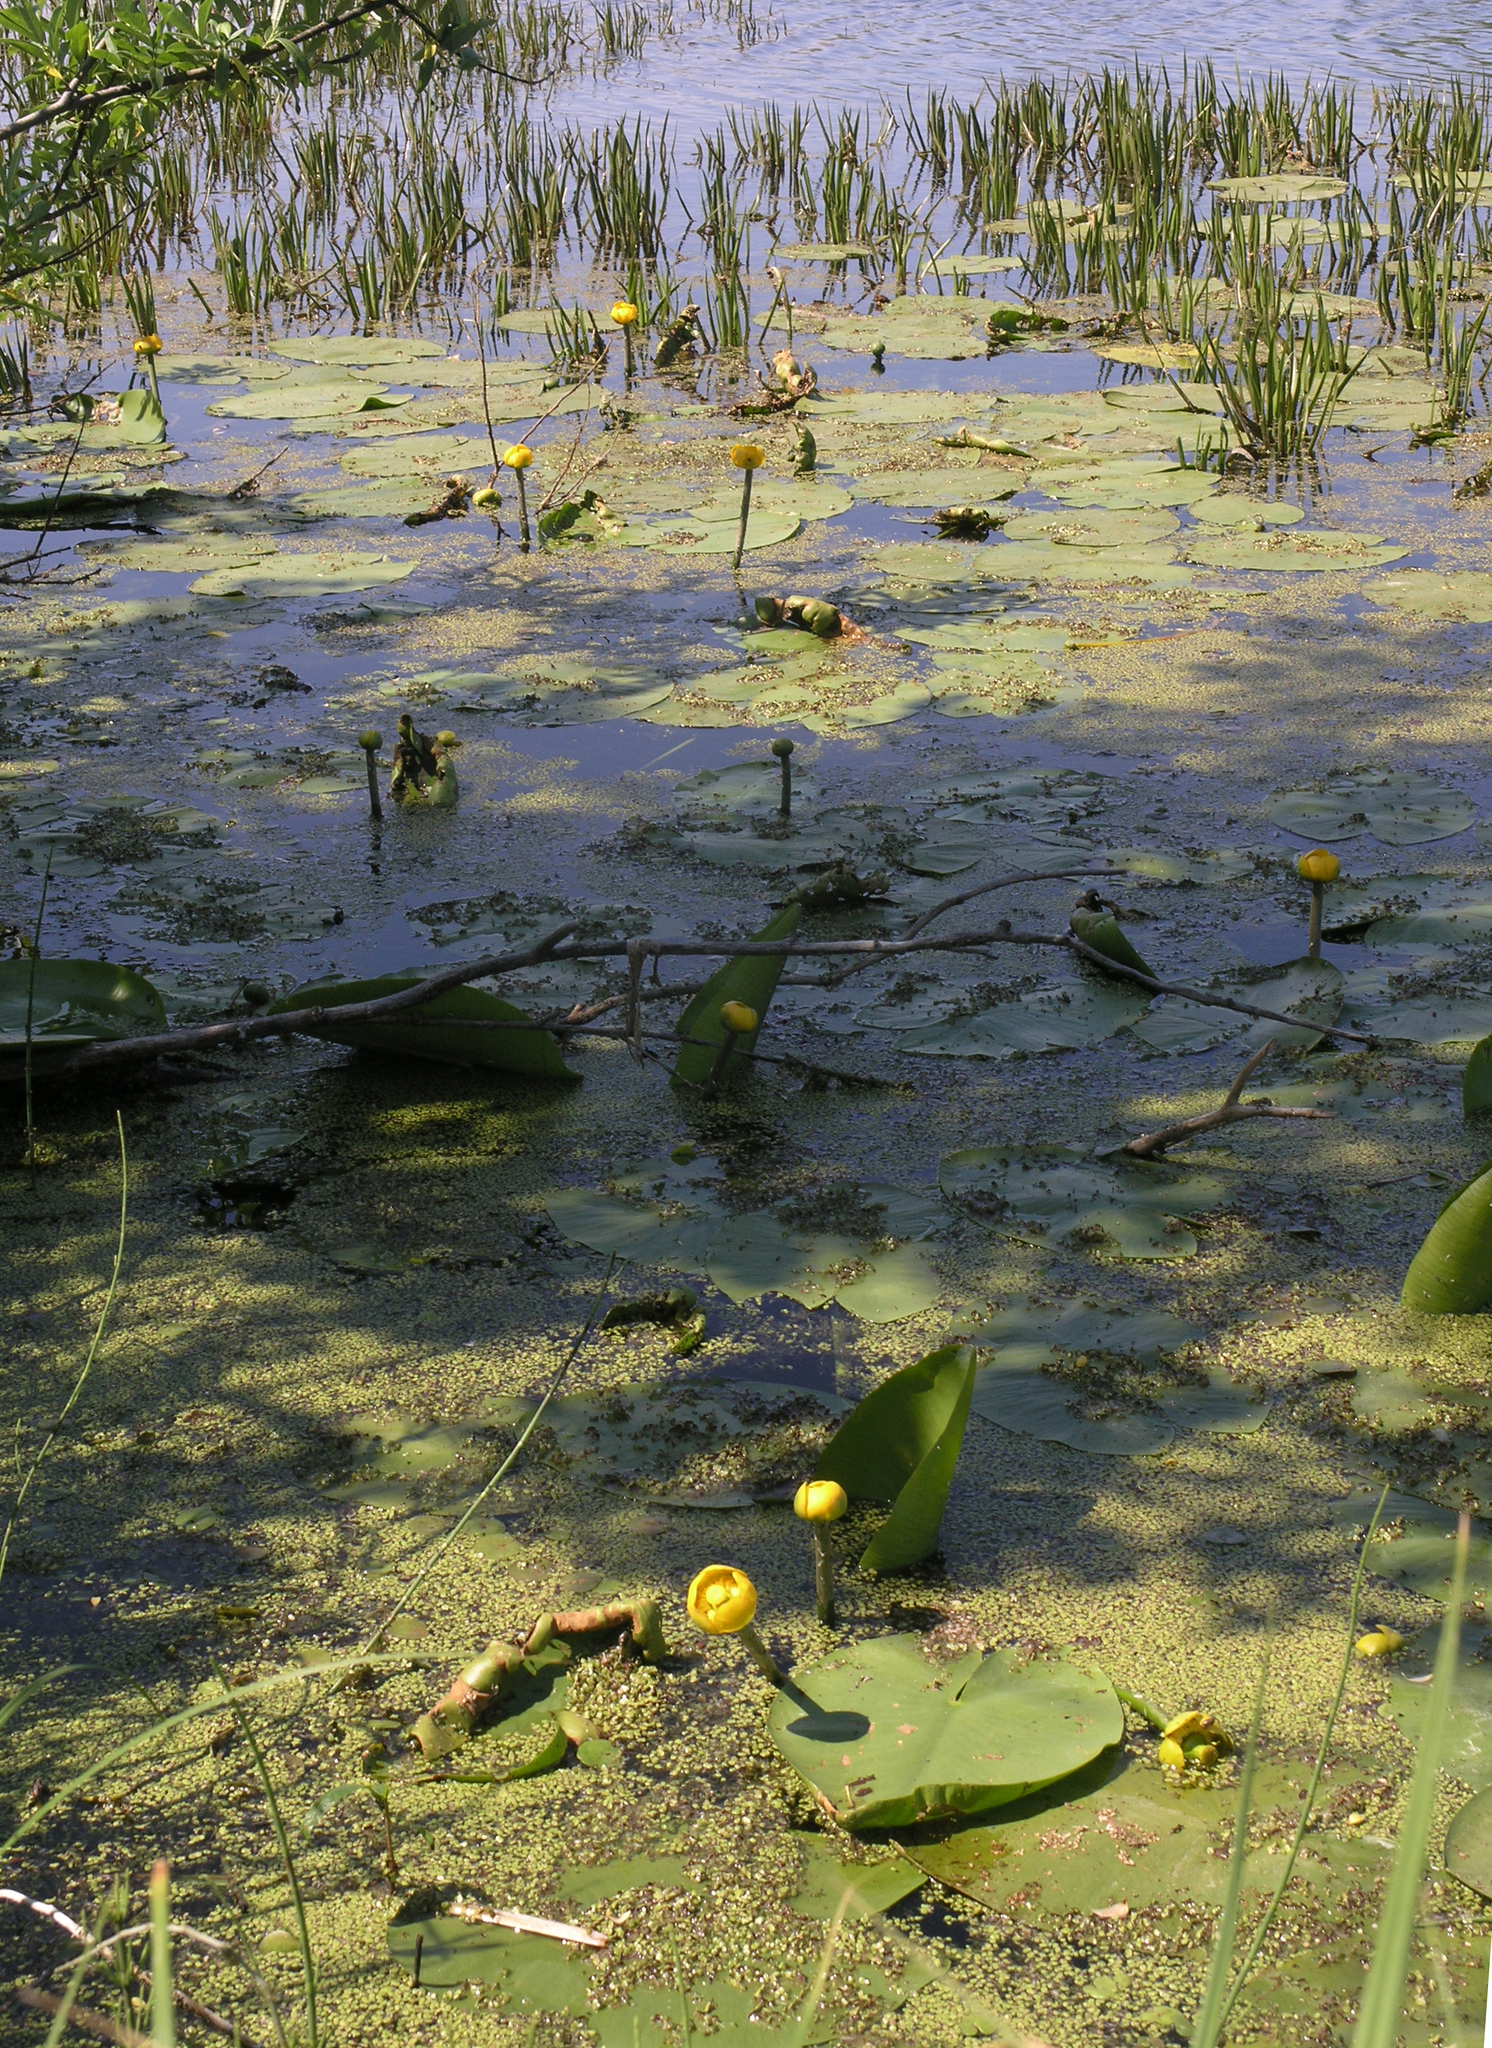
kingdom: Plantae
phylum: Tracheophyta
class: Magnoliopsida
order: Nymphaeales
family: Nymphaeaceae
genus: Nuphar
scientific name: Nuphar lutea
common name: Yellow water-lily
